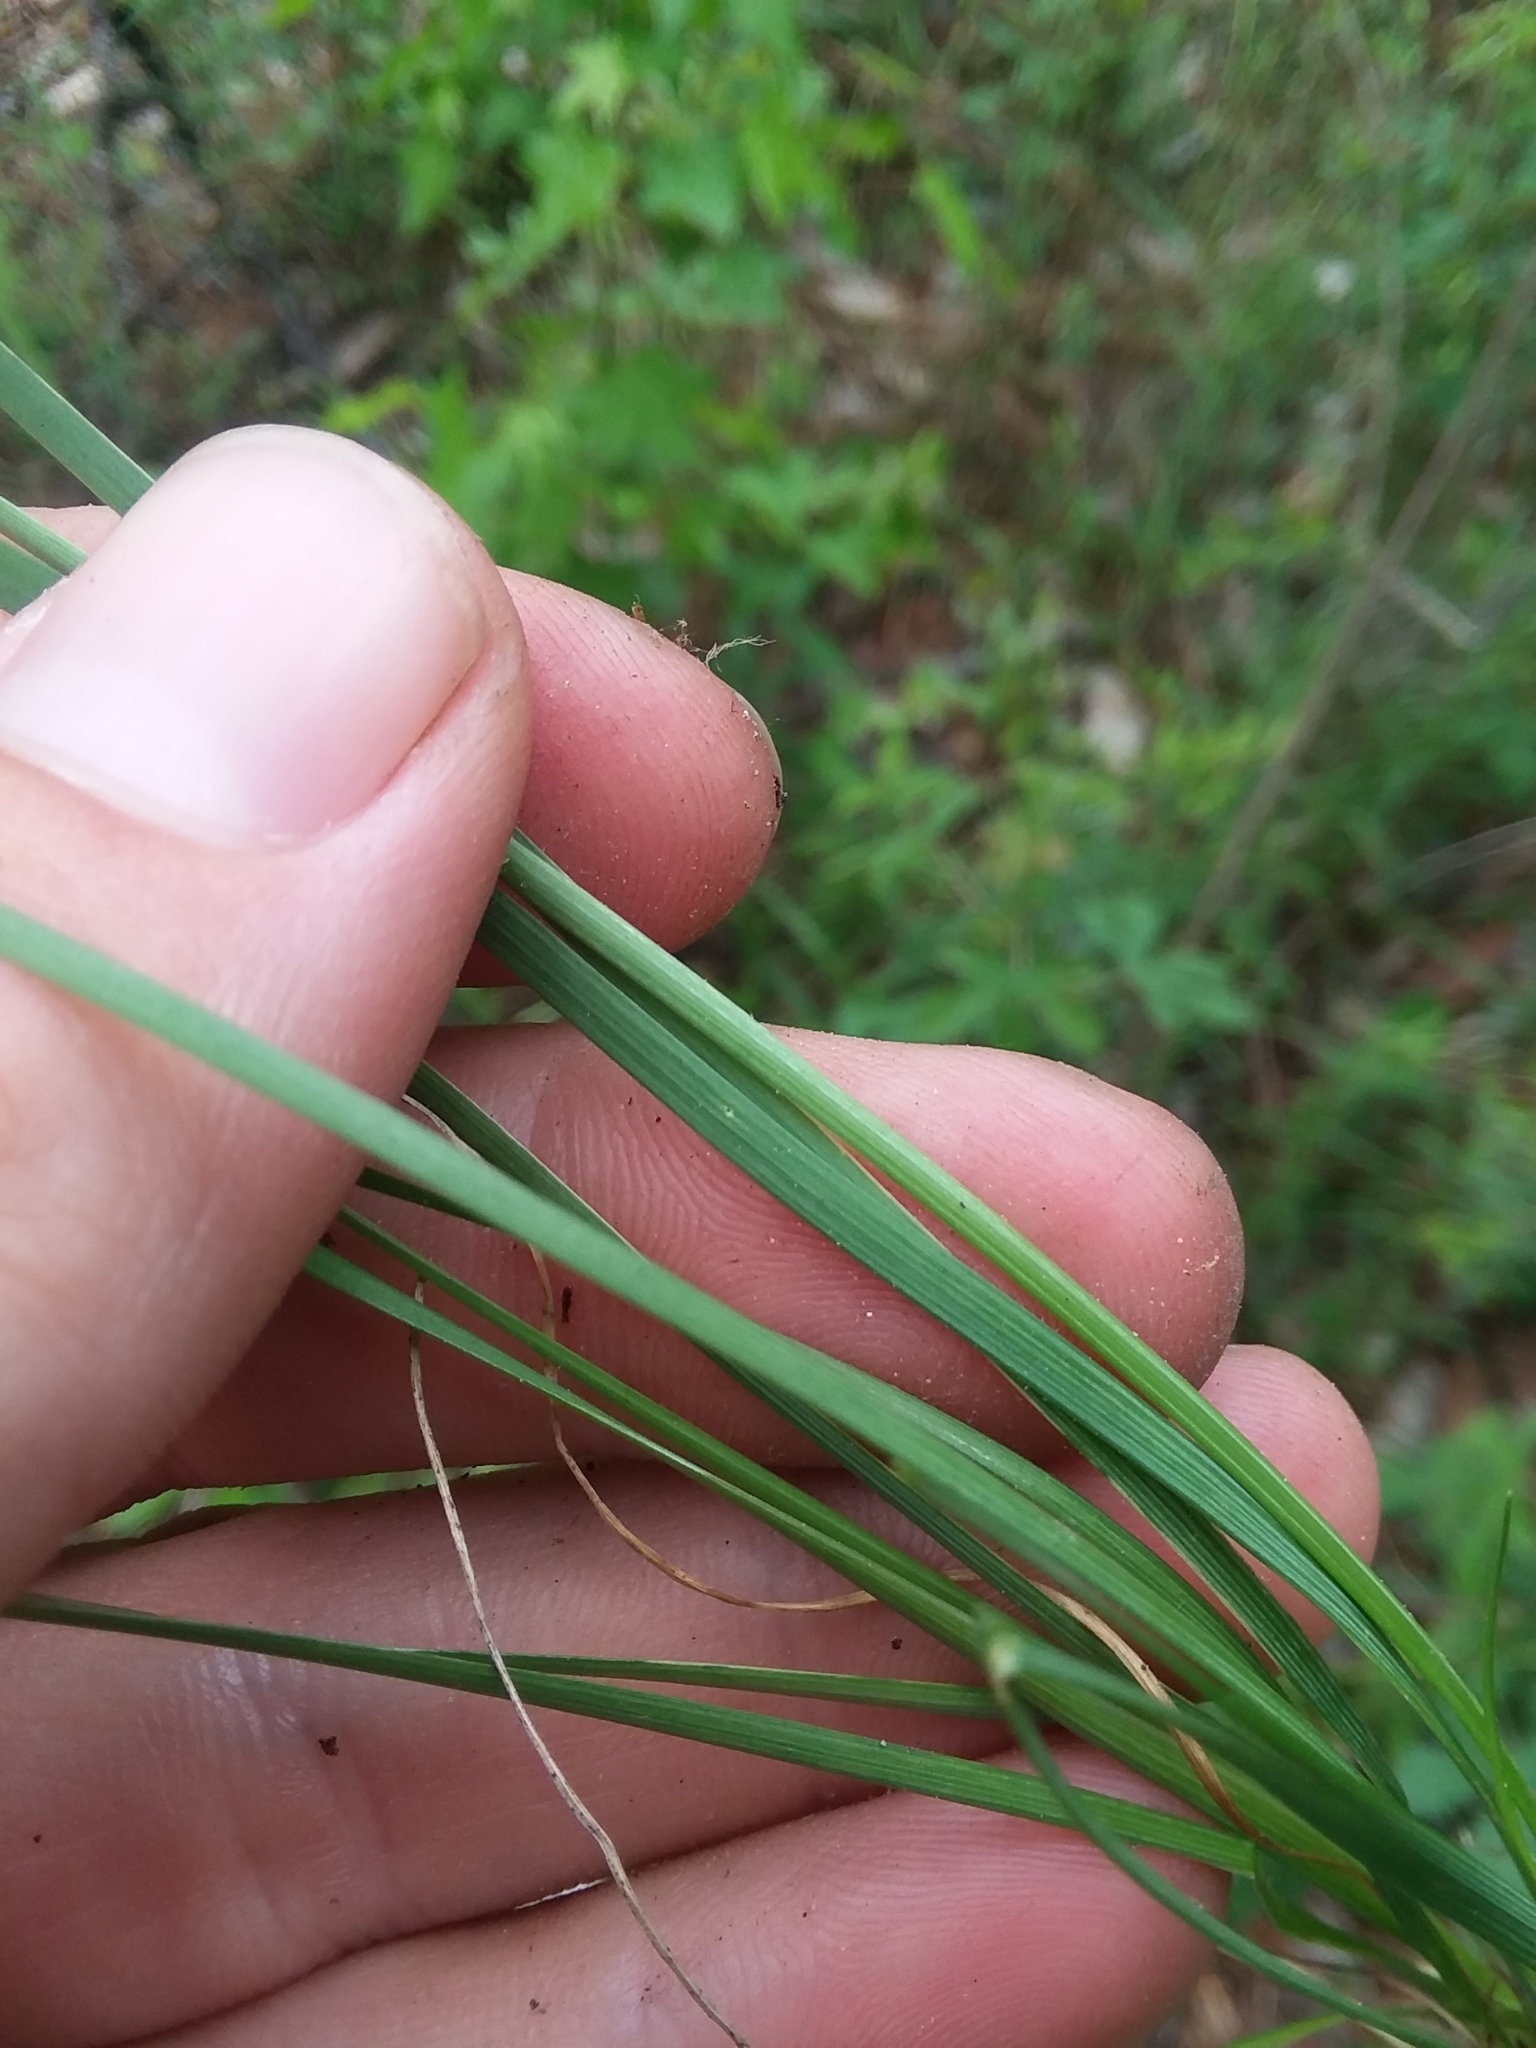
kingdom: Plantae
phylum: Tracheophyta
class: Liliopsida
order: Asparagales
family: Iridaceae
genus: Sisyrinchium
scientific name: Sisyrinchium angustifolium
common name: Narrow-leaf blue-eyed-grass
